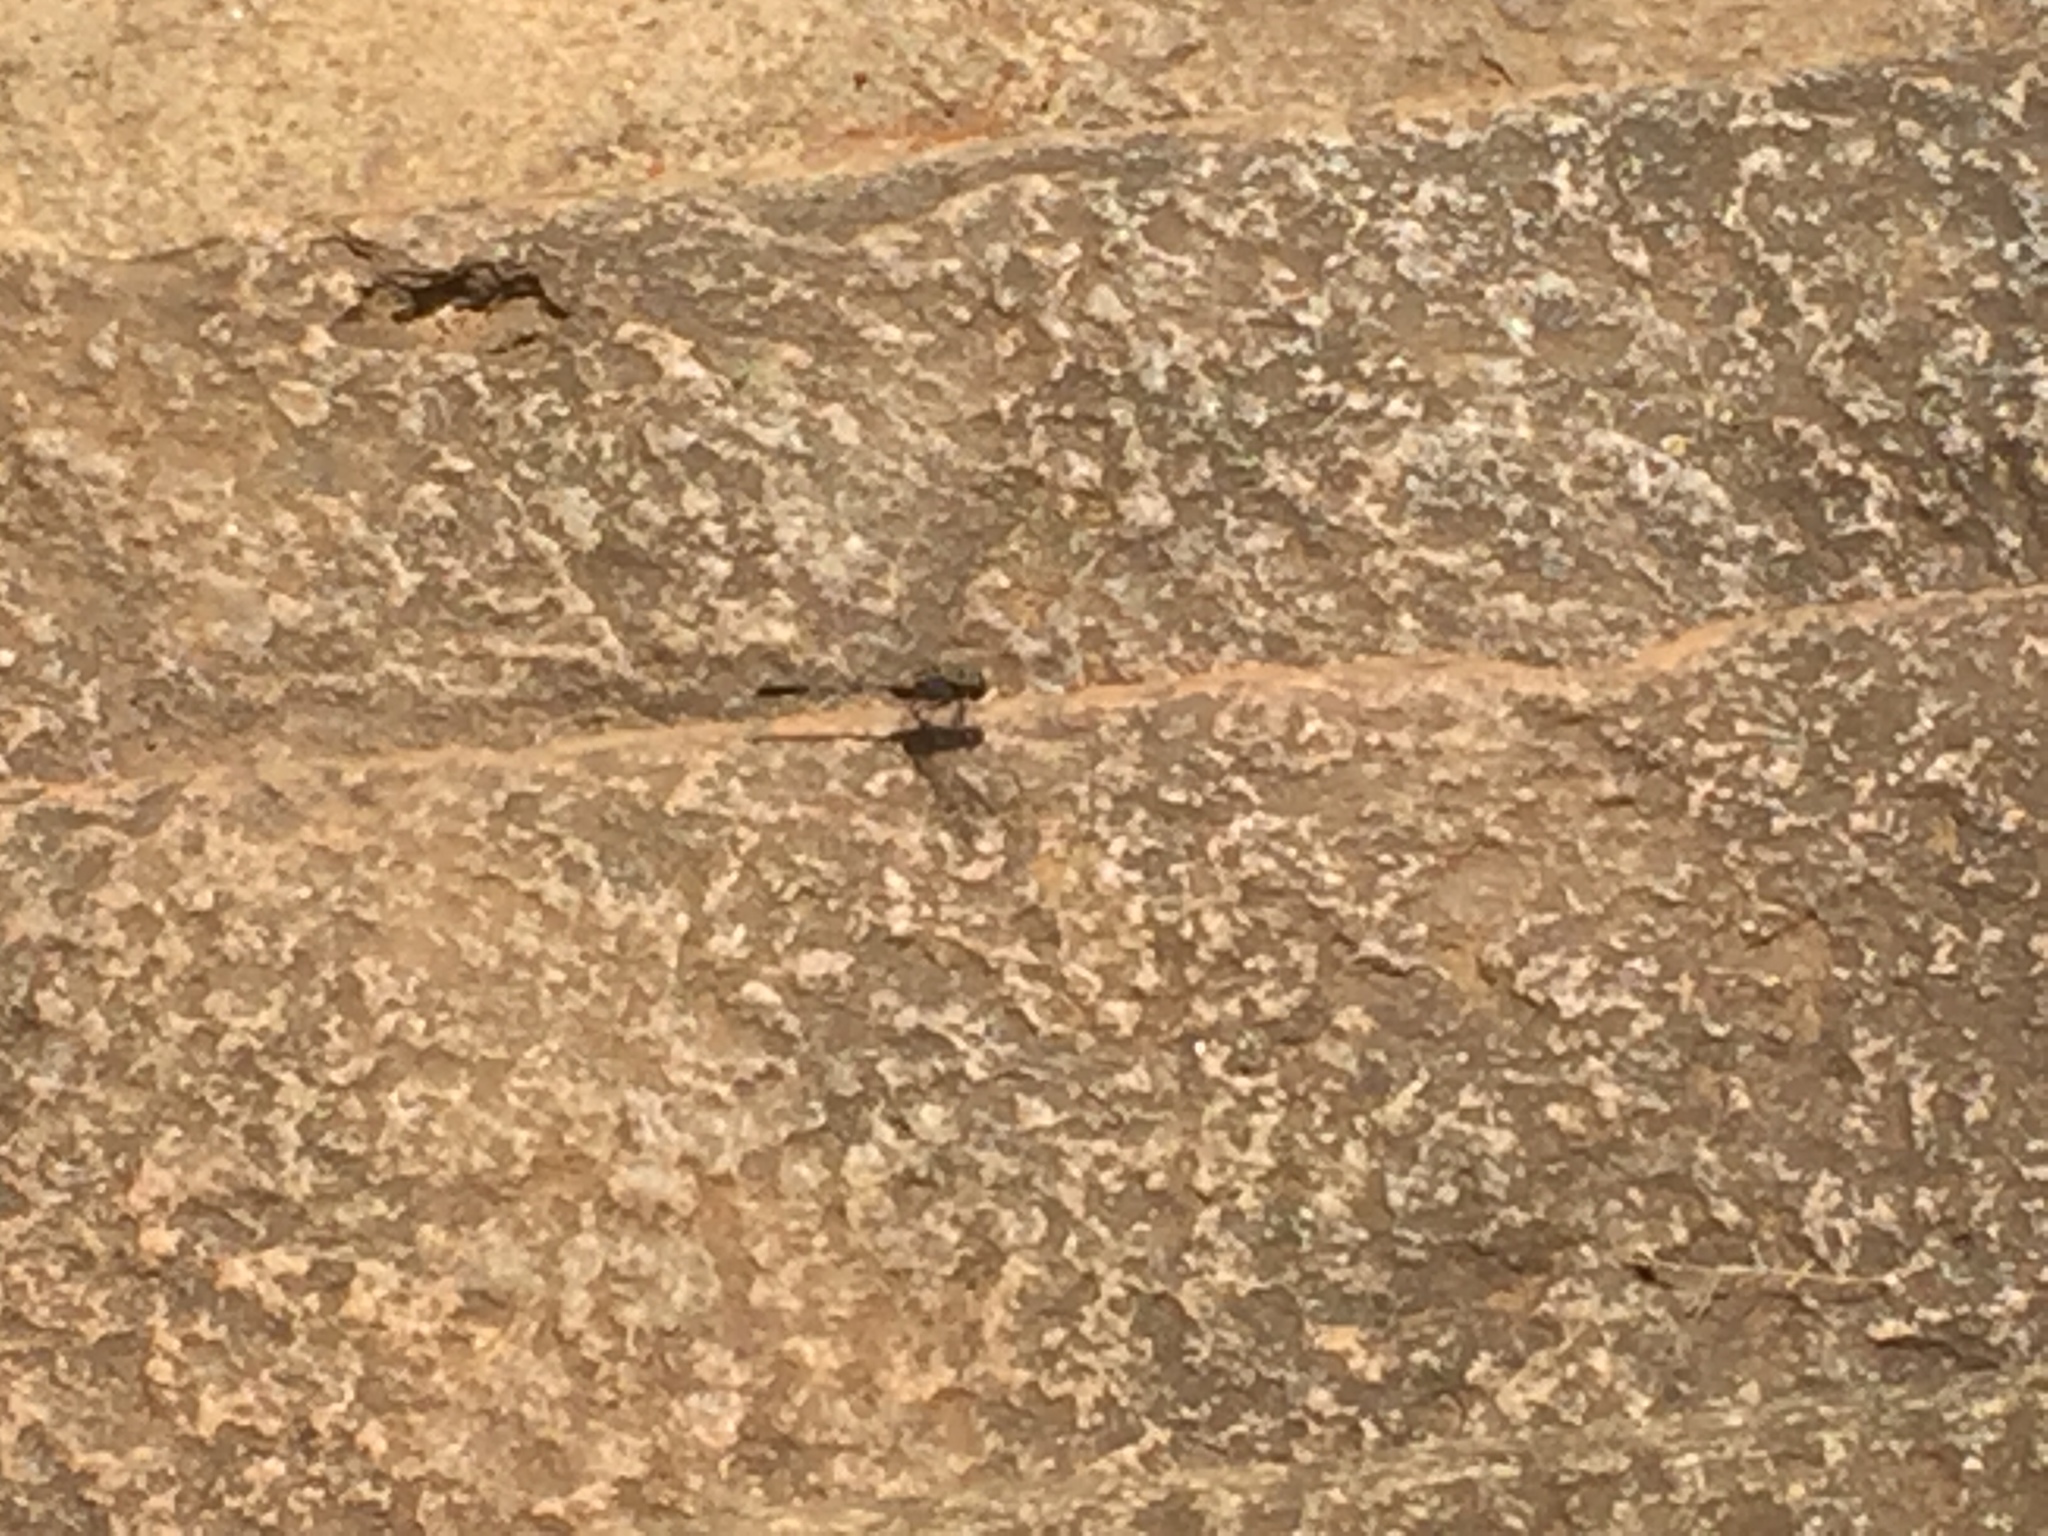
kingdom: Animalia
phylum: Arthropoda
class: Insecta
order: Odonata
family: Libellulidae
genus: Orthetrum
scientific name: Orthetrum sabina
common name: Slender skimmer
